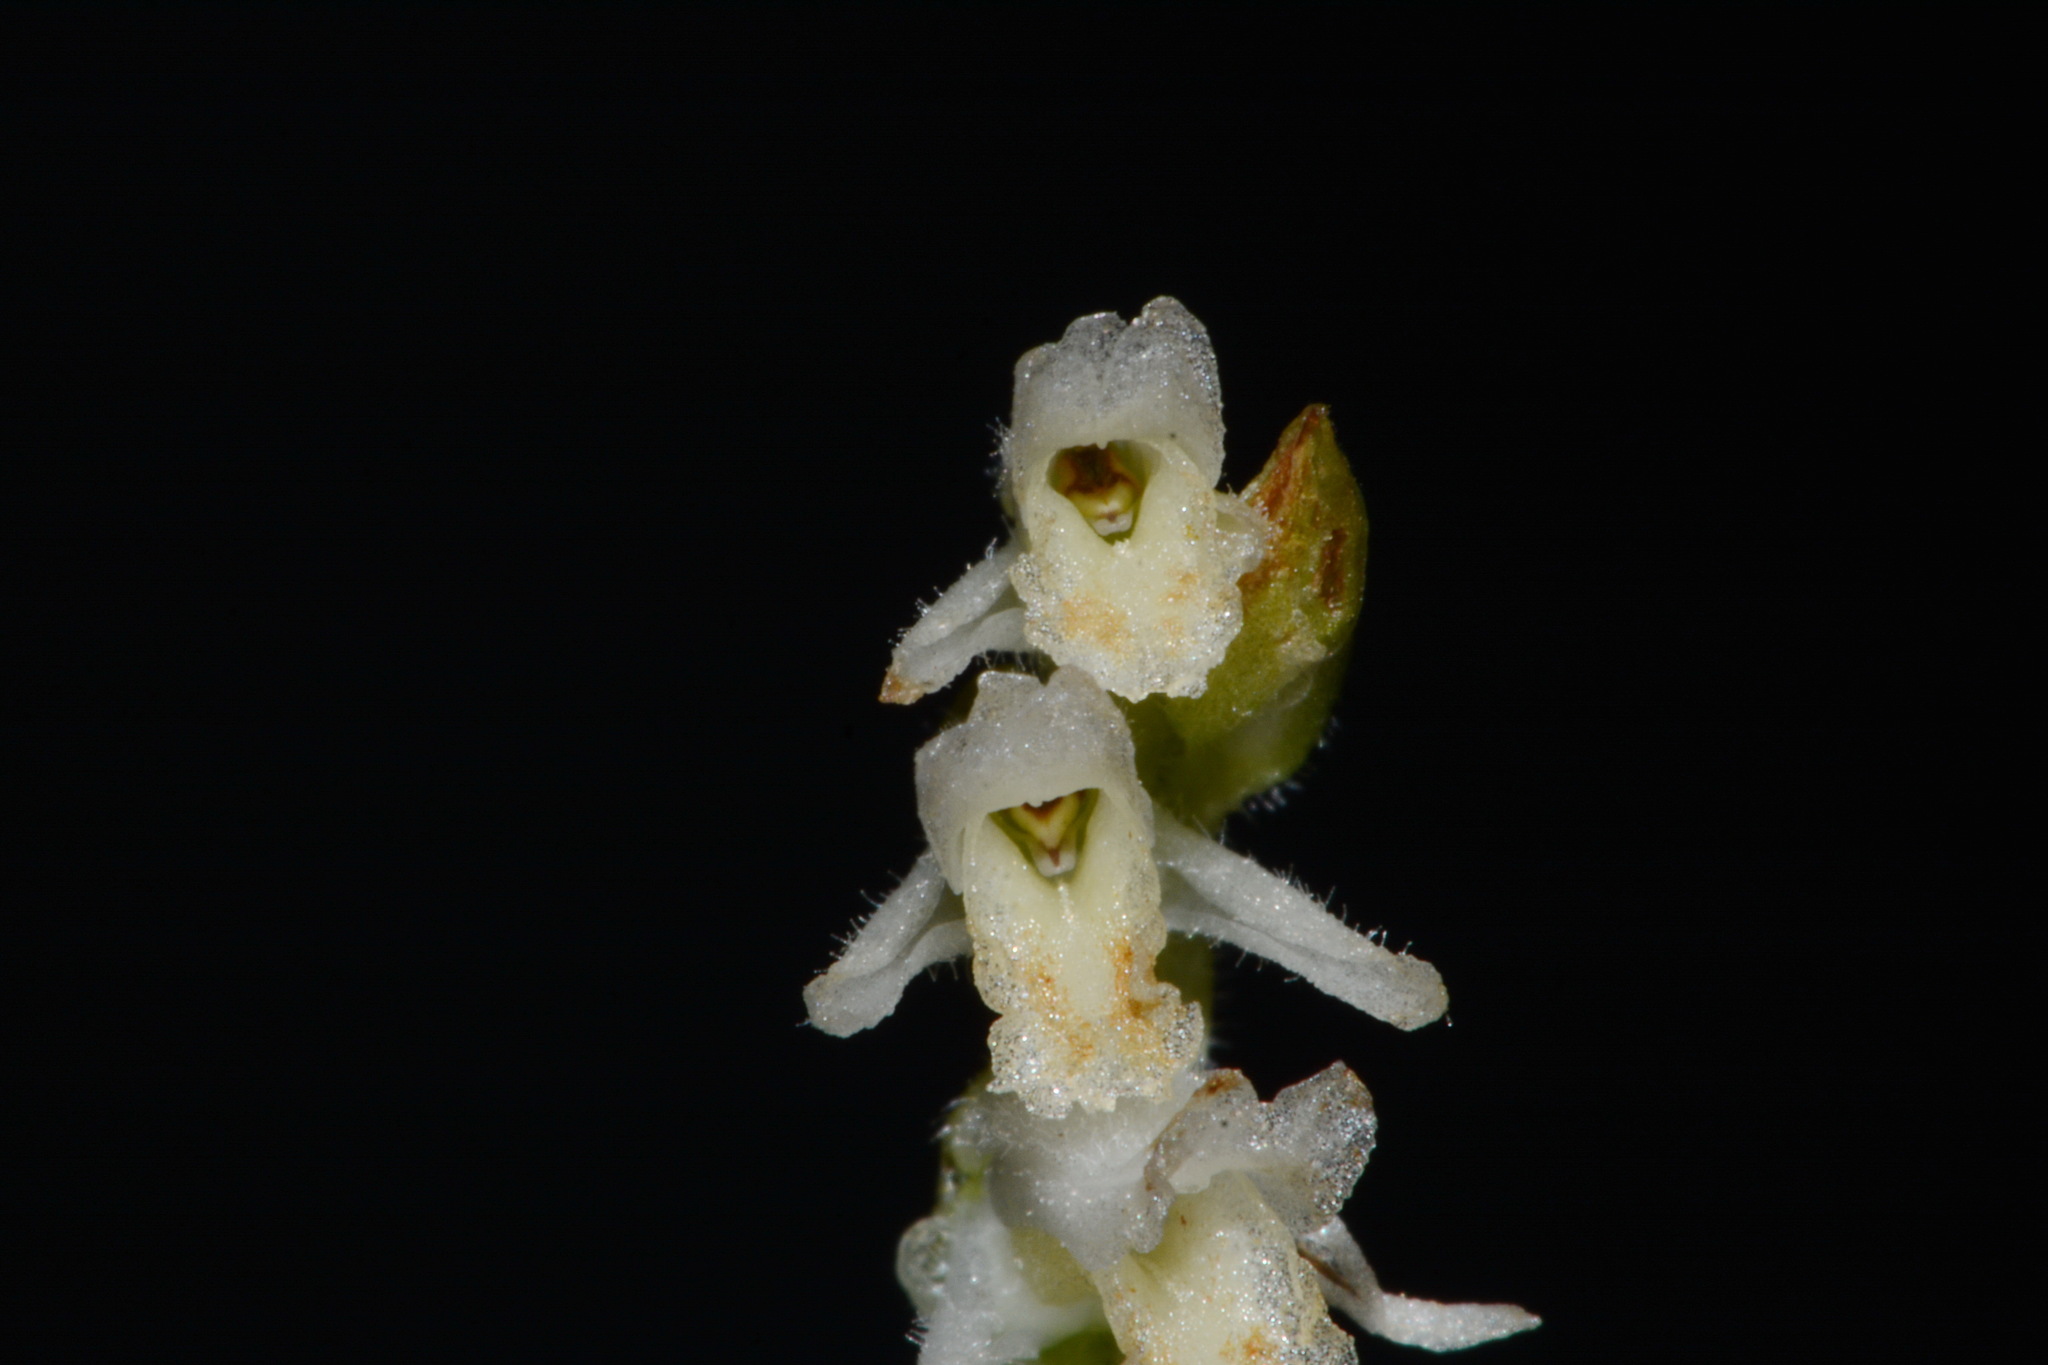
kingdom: Plantae
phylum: Tracheophyta
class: Liliopsida
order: Asparagales
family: Orchidaceae
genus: Spiranthes
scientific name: Spiranthes vernalis
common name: Spring ladies'-tresses
